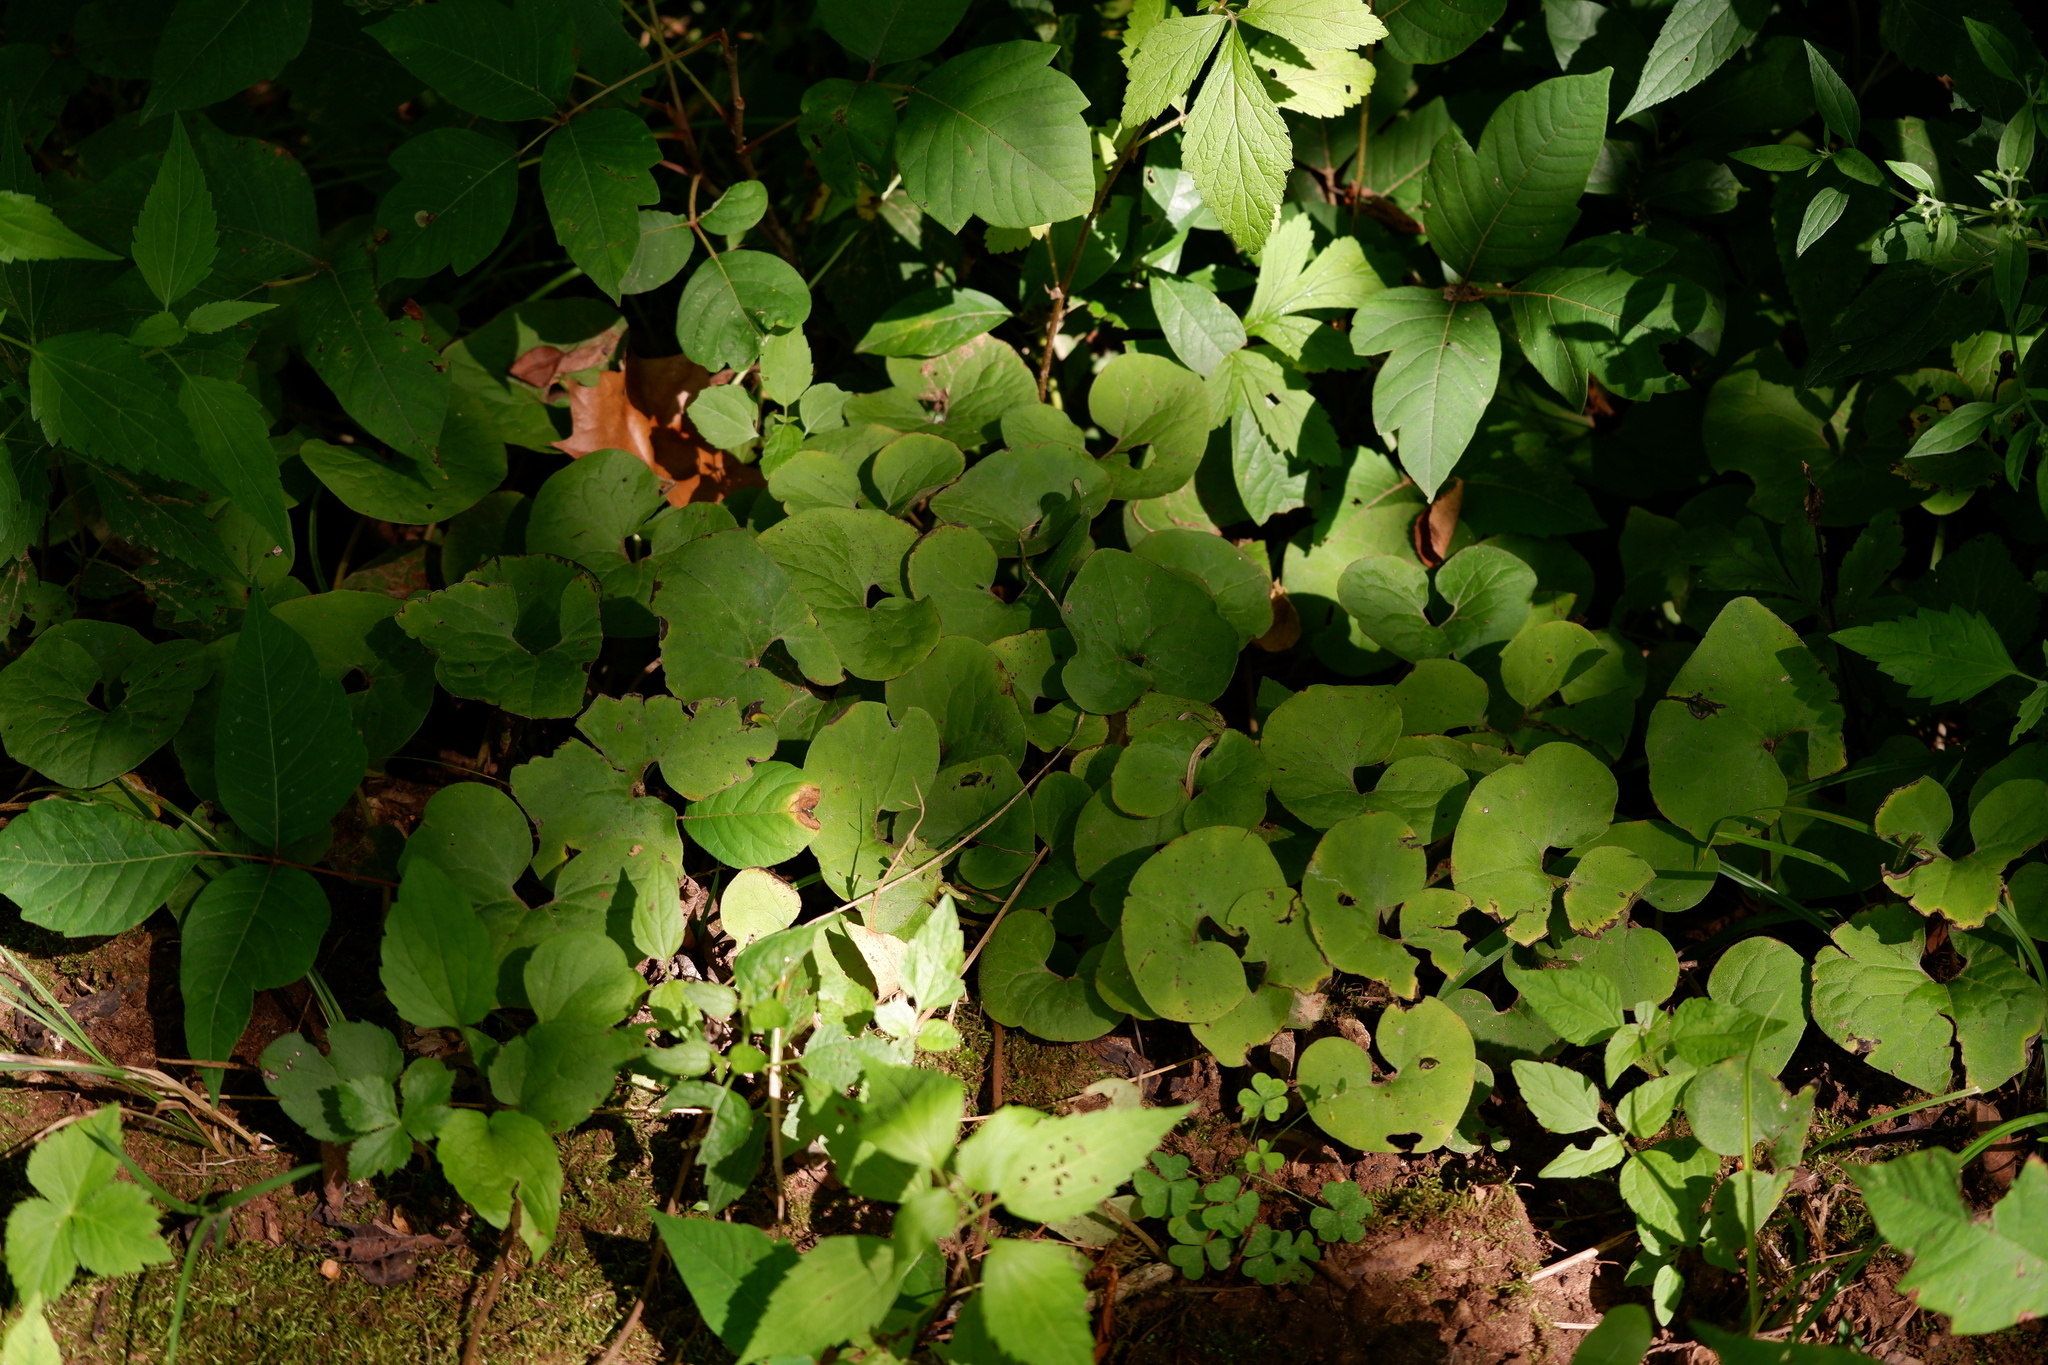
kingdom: Plantae
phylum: Tracheophyta
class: Magnoliopsida
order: Piperales
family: Aristolochiaceae
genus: Asarum
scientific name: Asarum canadense
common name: Wild ginger
